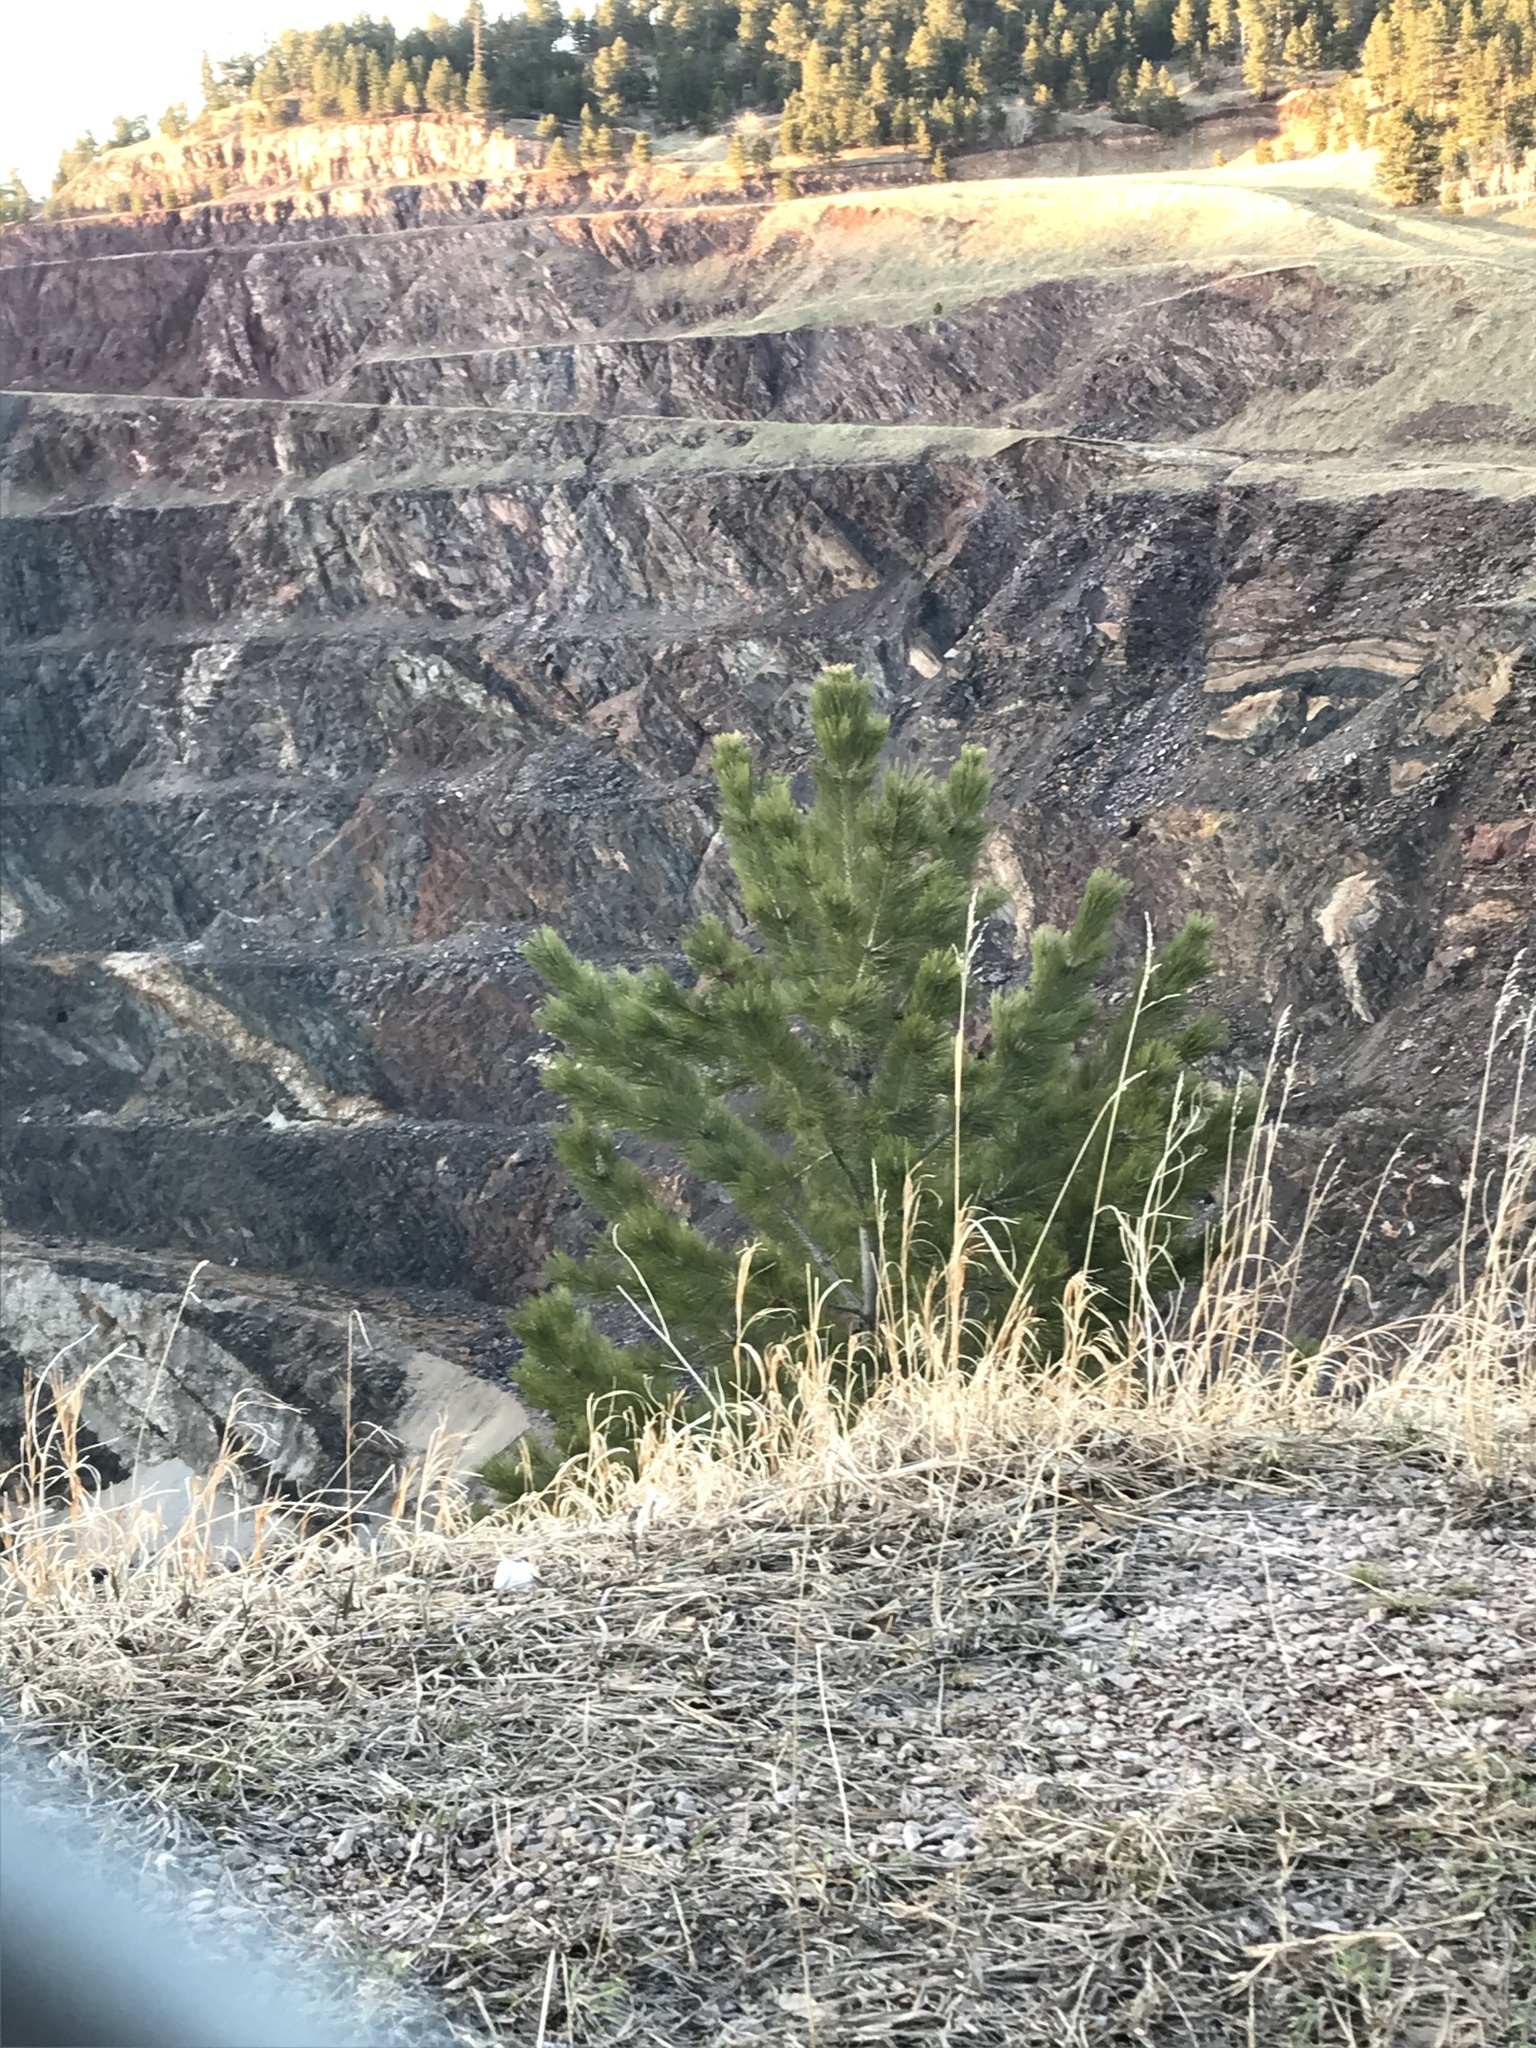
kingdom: Plantae
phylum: Tracheophyta
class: Pinopsida
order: Pinales
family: Pinaceae
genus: Pinus
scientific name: Pinus ponderosa
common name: Western yellow-pine
